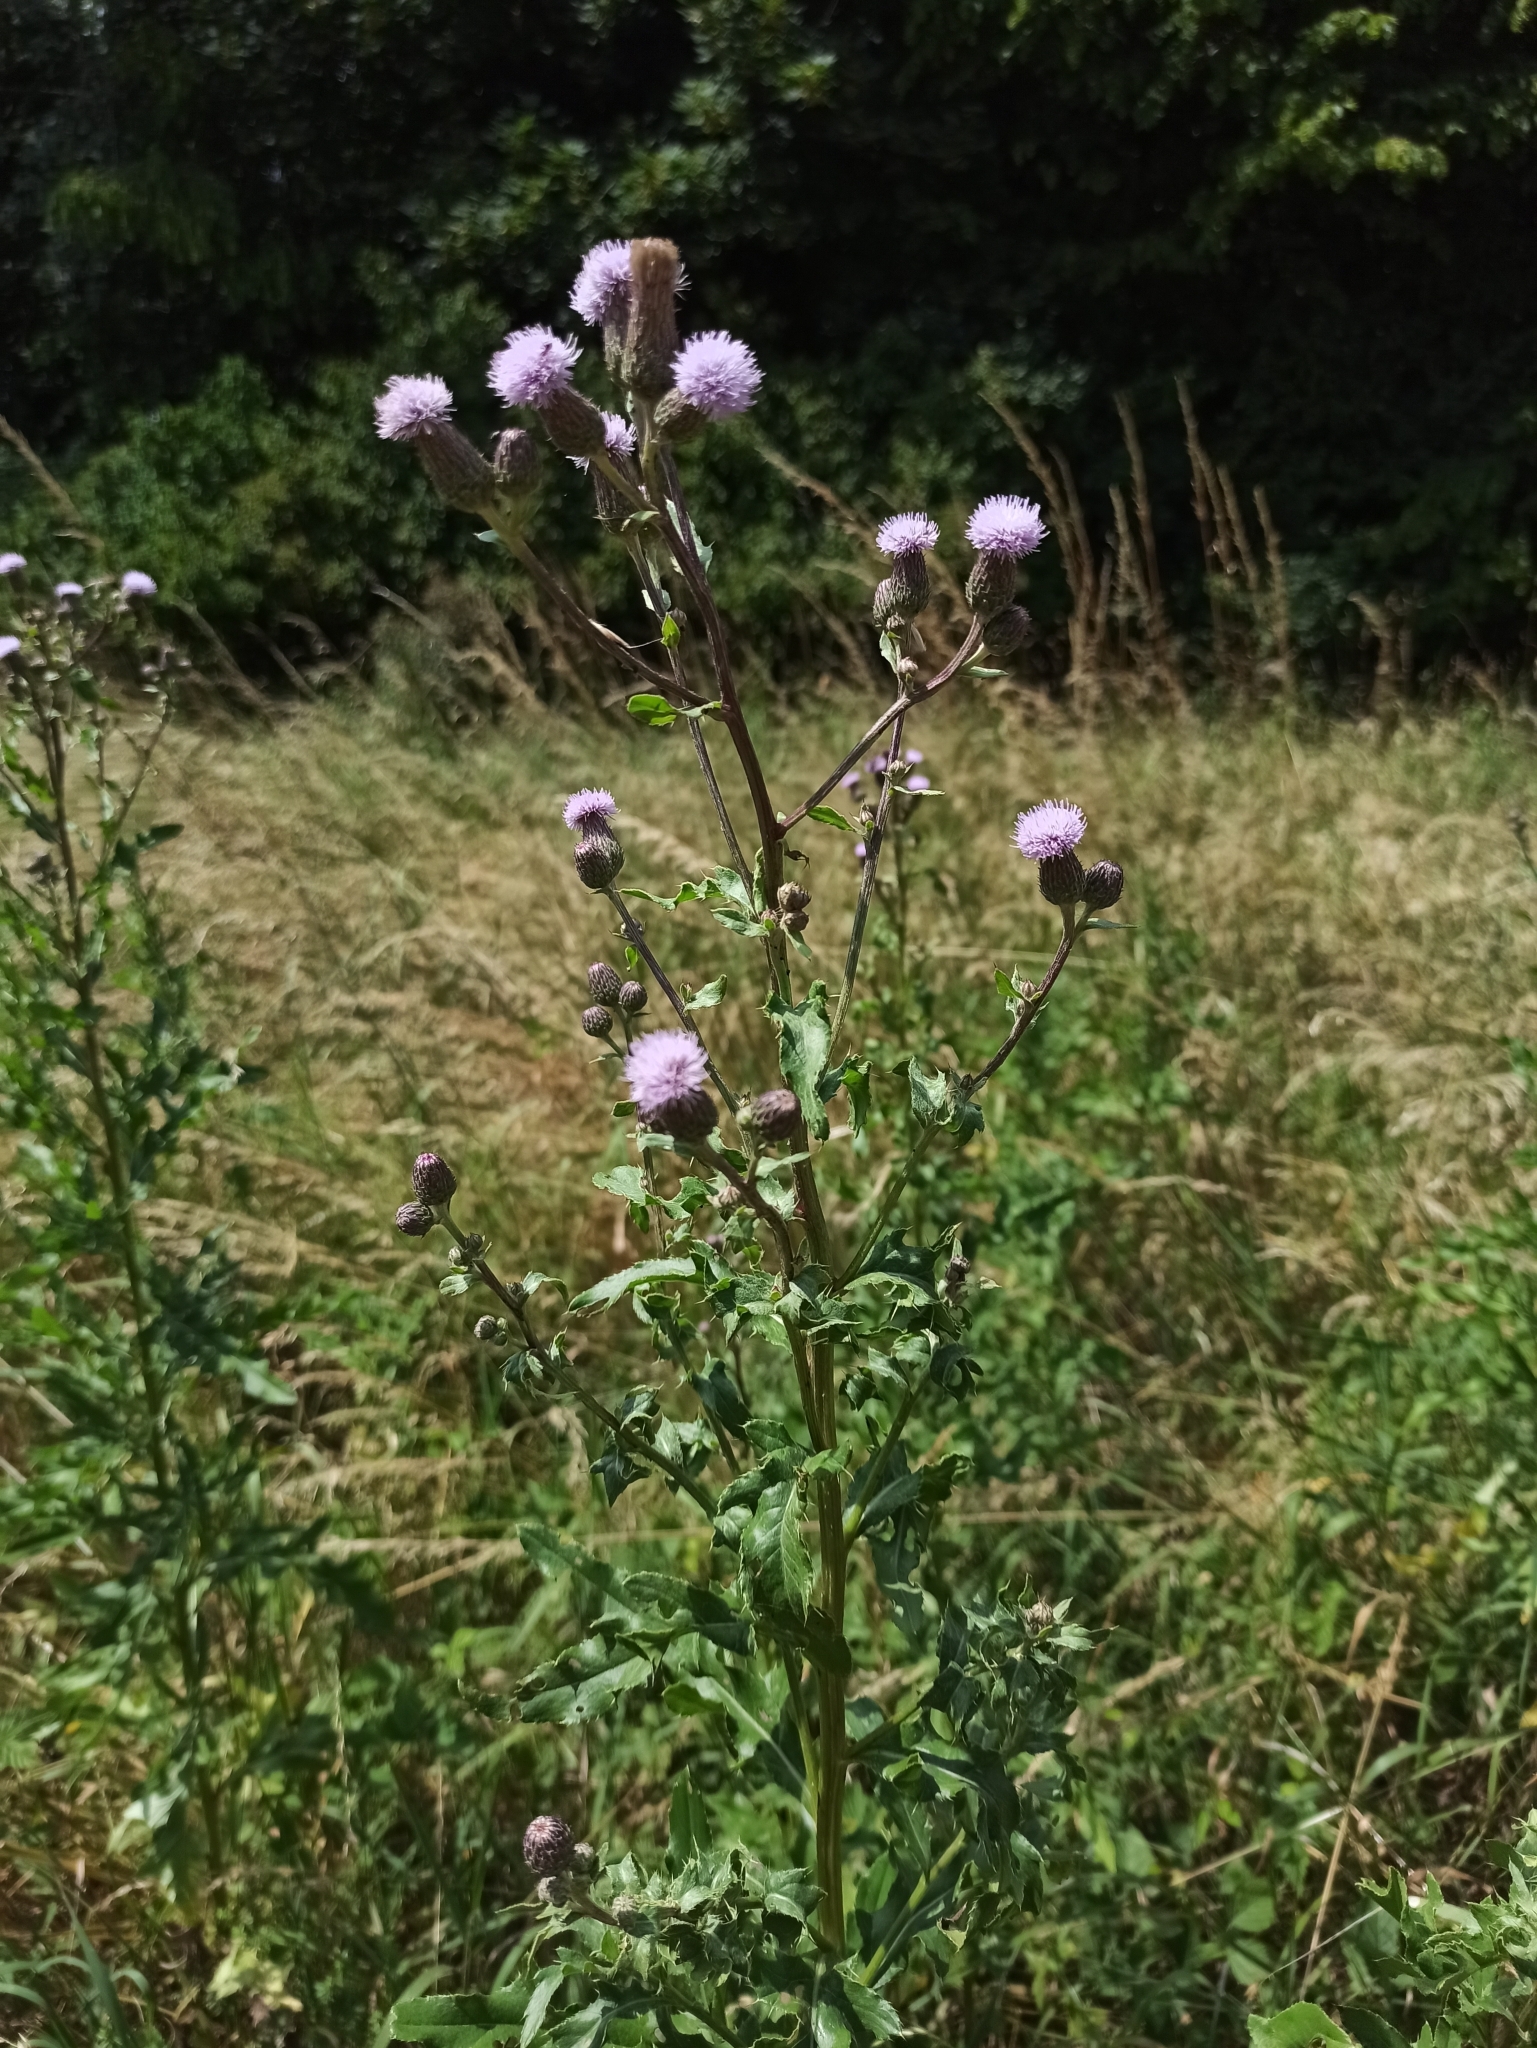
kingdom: Plantae
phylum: Tracheophyta
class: Magnoliopsida
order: Asterales
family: Asteraceae
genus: Cirsium
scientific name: Cirsium arvense
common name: Creeping thistle
